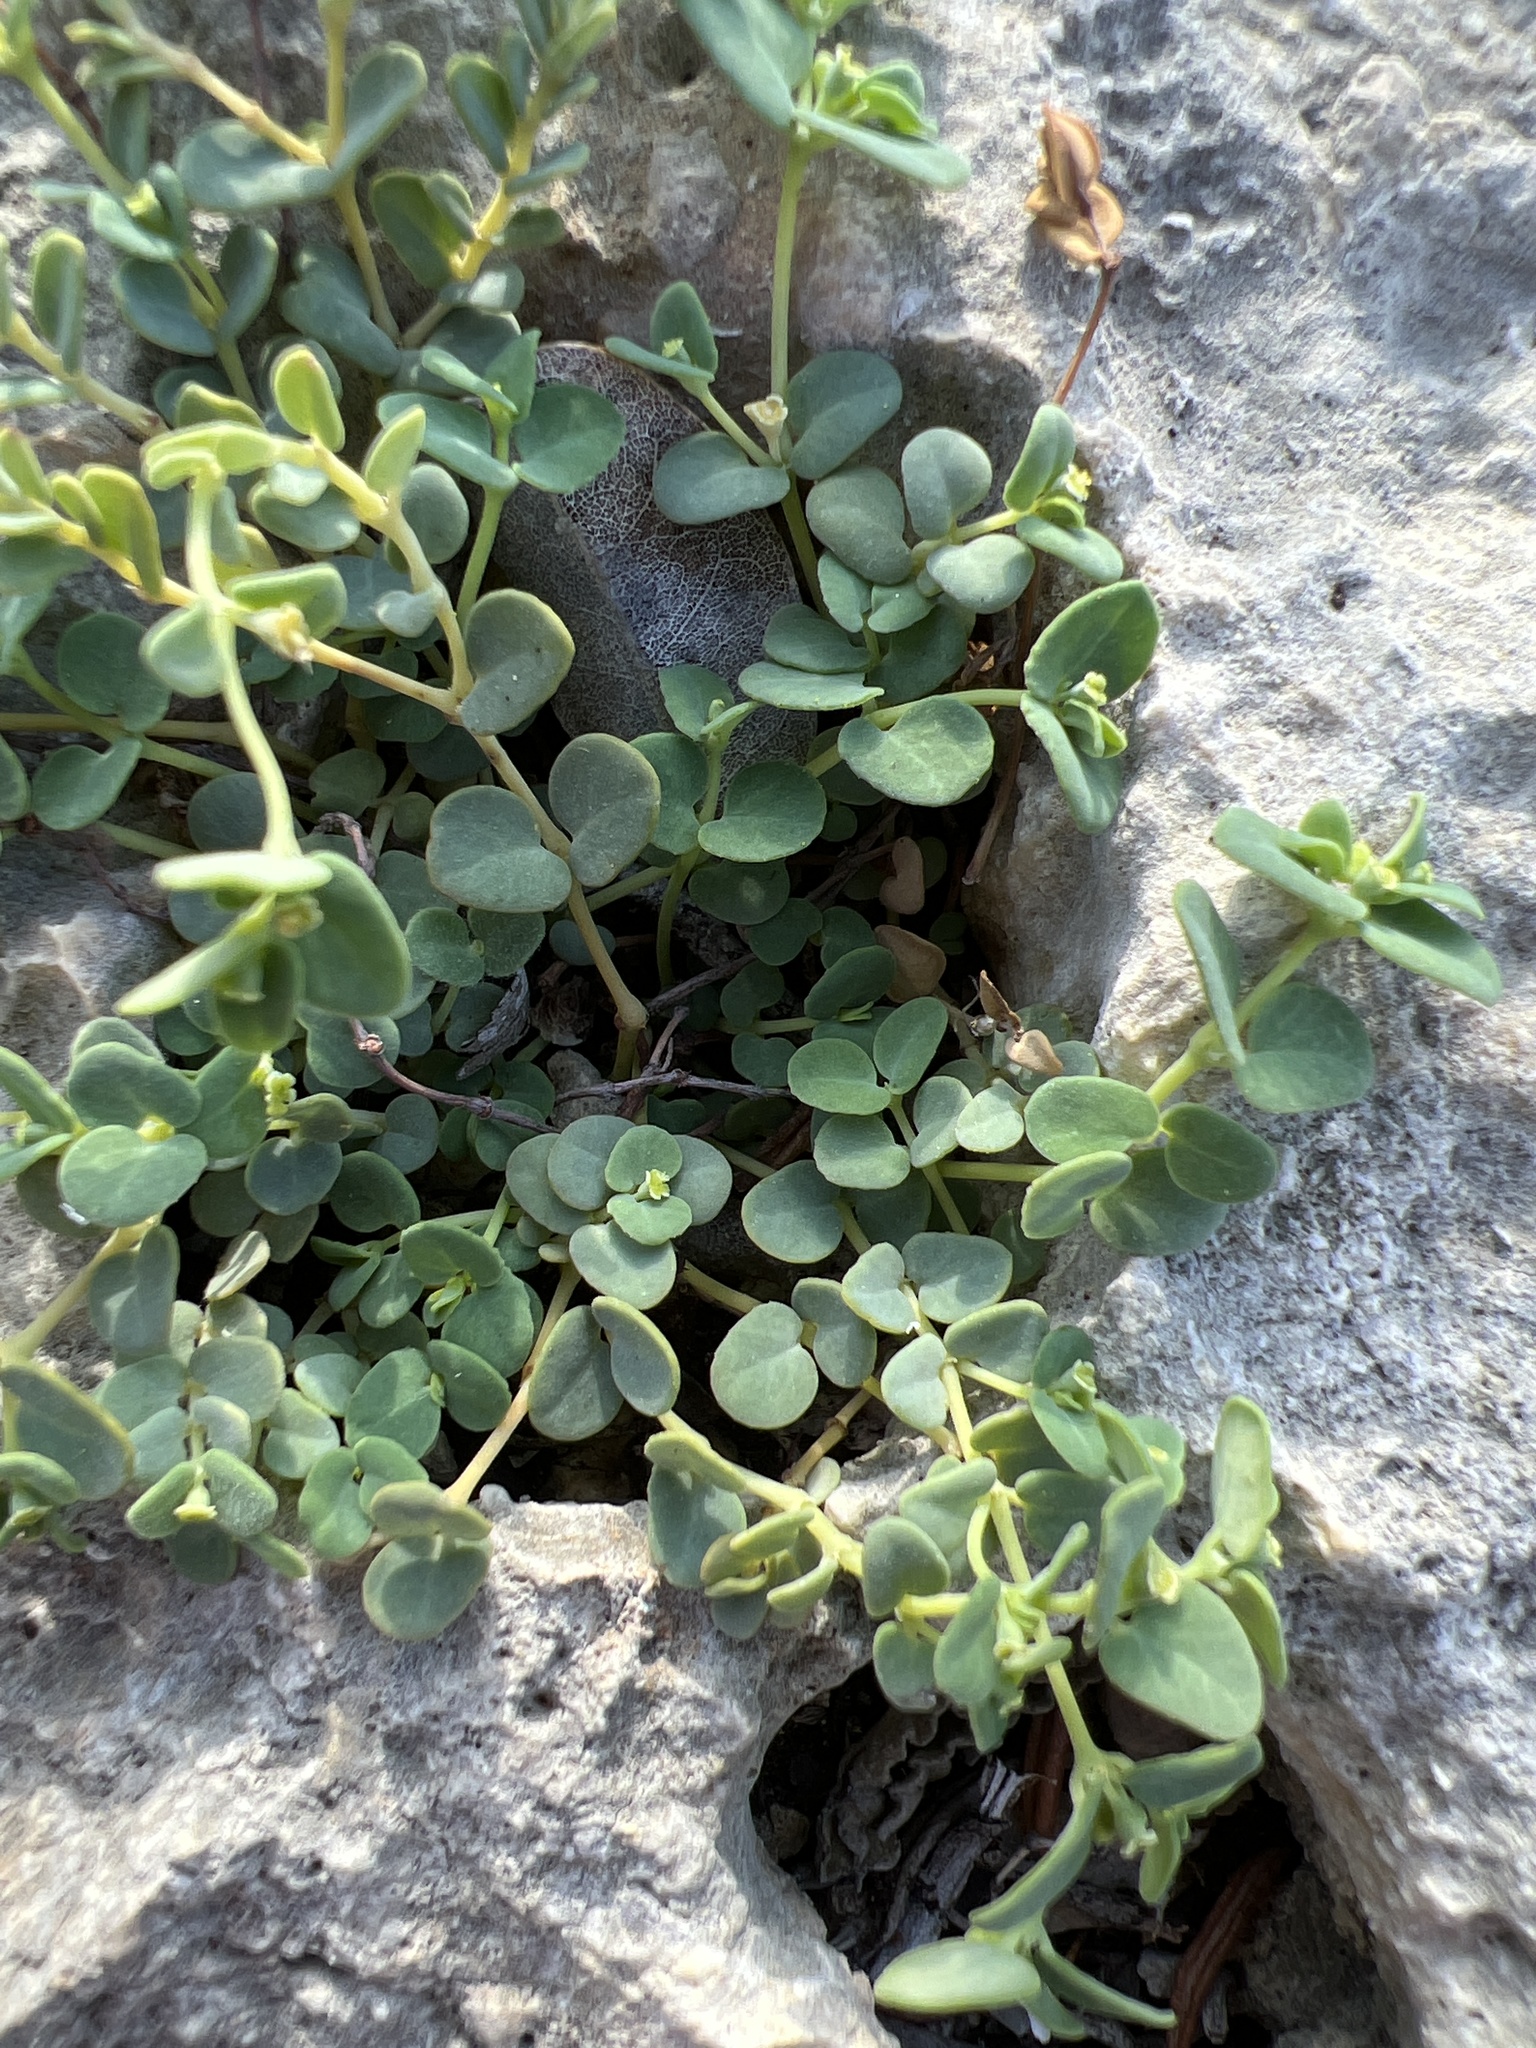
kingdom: Plantae
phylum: Tracheophyta
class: Magnoliopsida
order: Malpighiales
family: Euphorbiaceae
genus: Euphorbia
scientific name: Euphorbia cowellii
